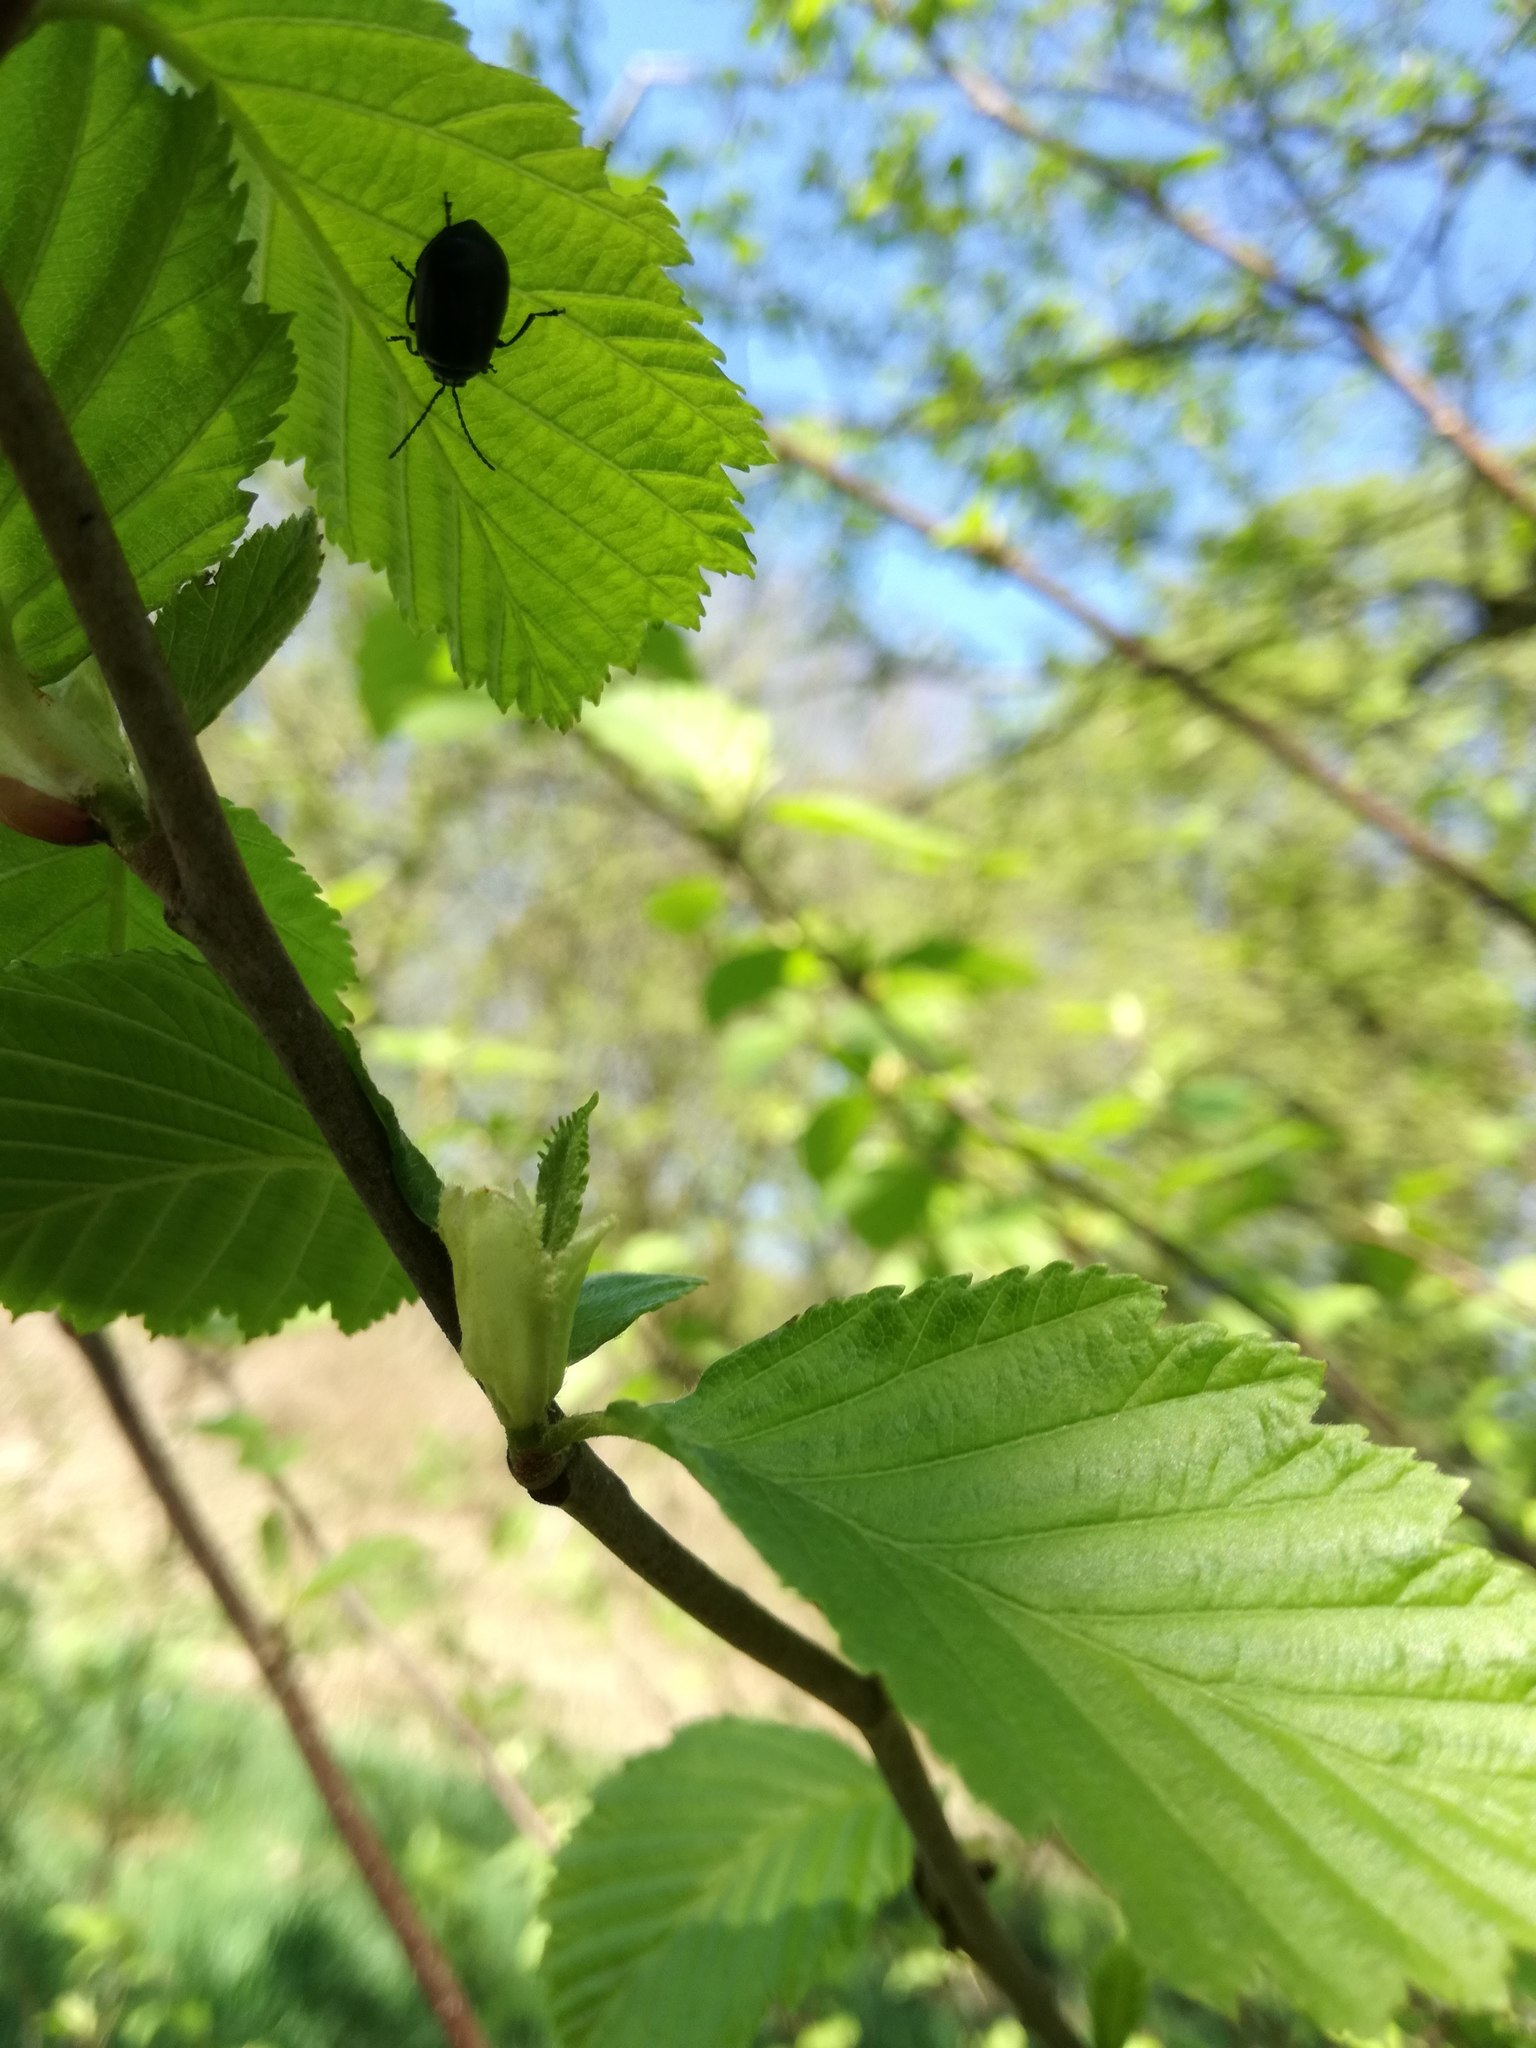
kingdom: Animalia
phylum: Arthropoda
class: Insecta
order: Coleoptera
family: Chrysomelidae
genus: Agelastica
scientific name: Agelastica alni
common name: Alder leaf beetle
